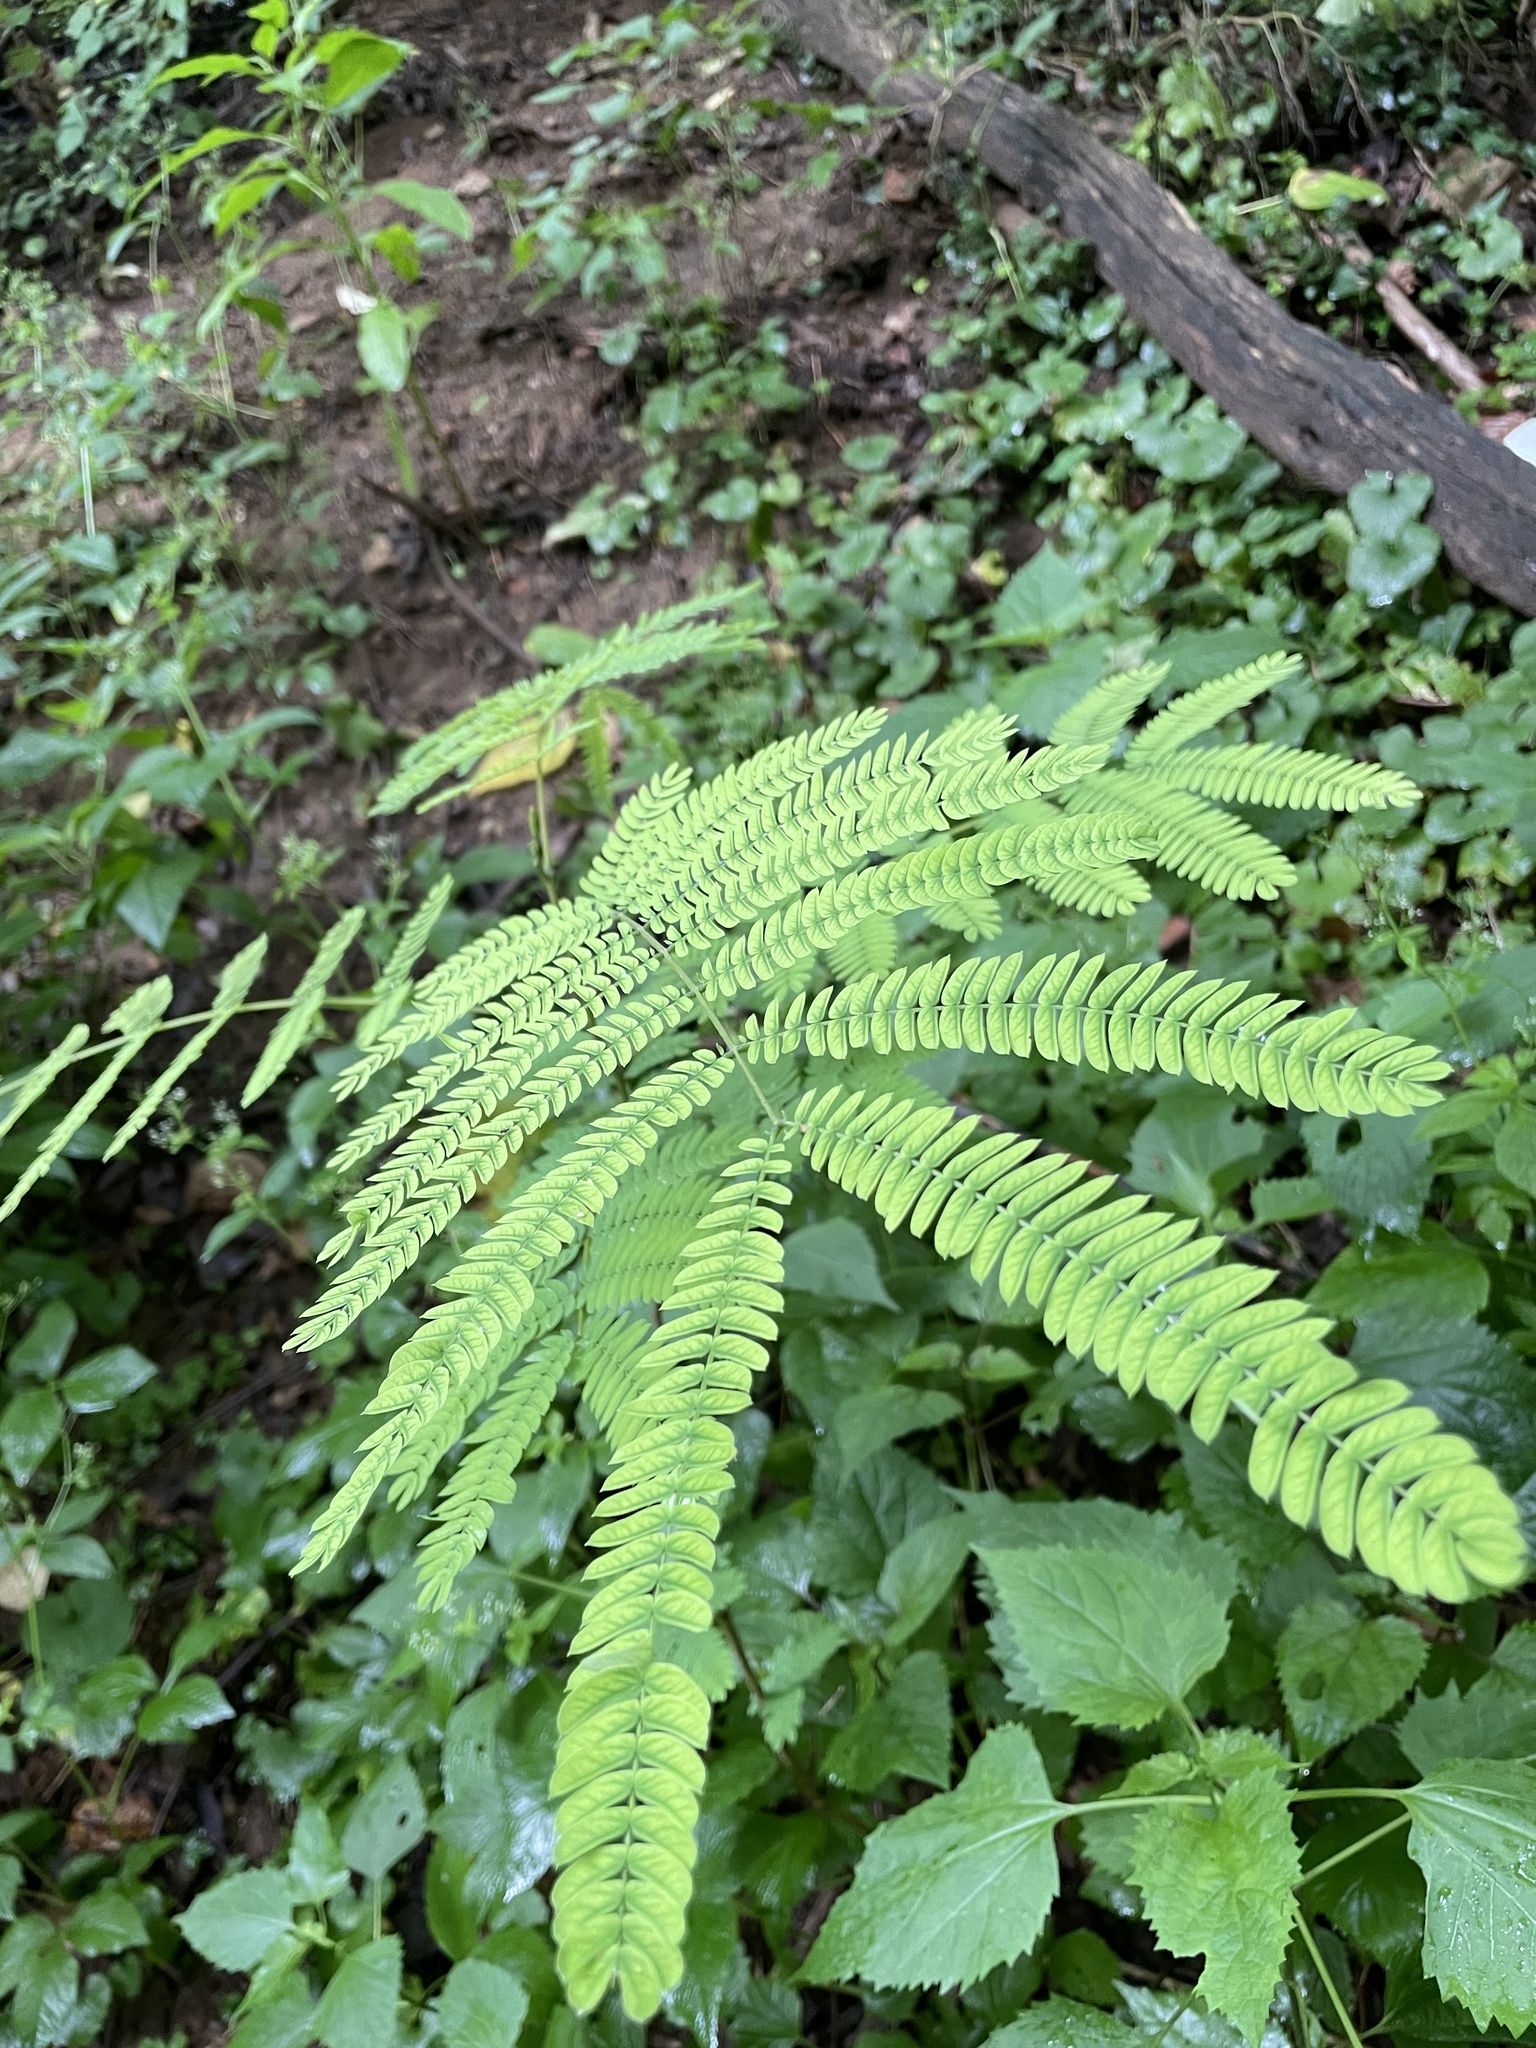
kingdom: Plantae
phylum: Tracheophyta
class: Magnoliopsida
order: Fabales
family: Fabaceae
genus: Albizia
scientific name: Albizia julibrissin
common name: Silktree
